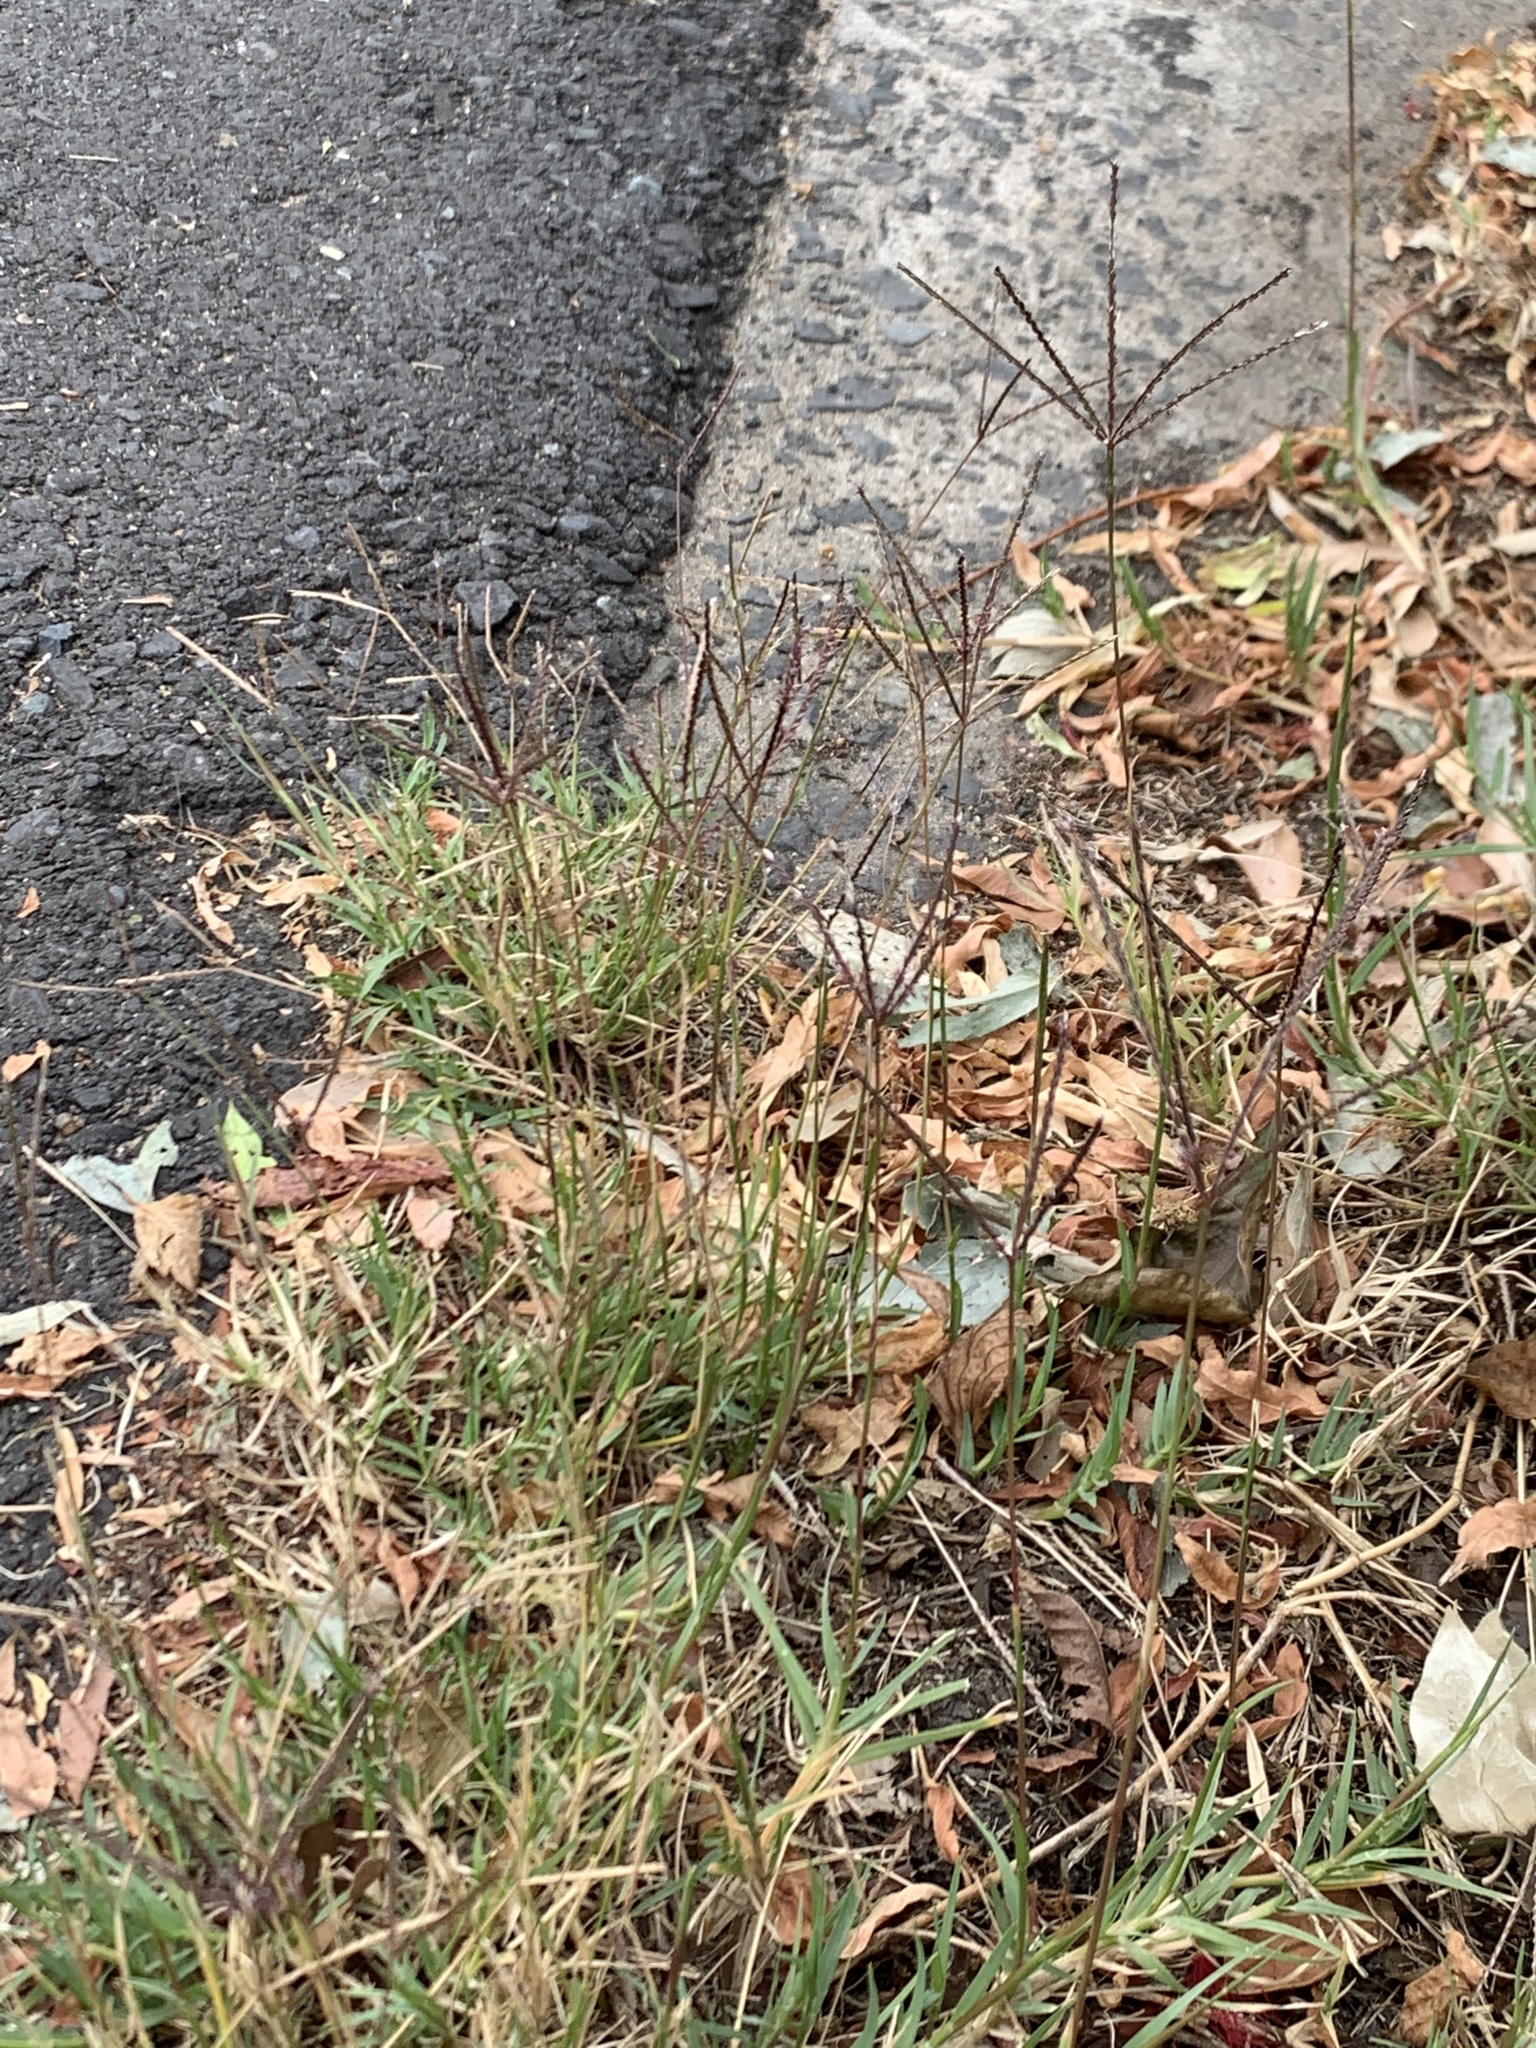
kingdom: Plantae
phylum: Tracheophyta
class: Liliopsida
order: Poales
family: Poaceae
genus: Cynodon
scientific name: Cynodon dactylon
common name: Bermuda grass
